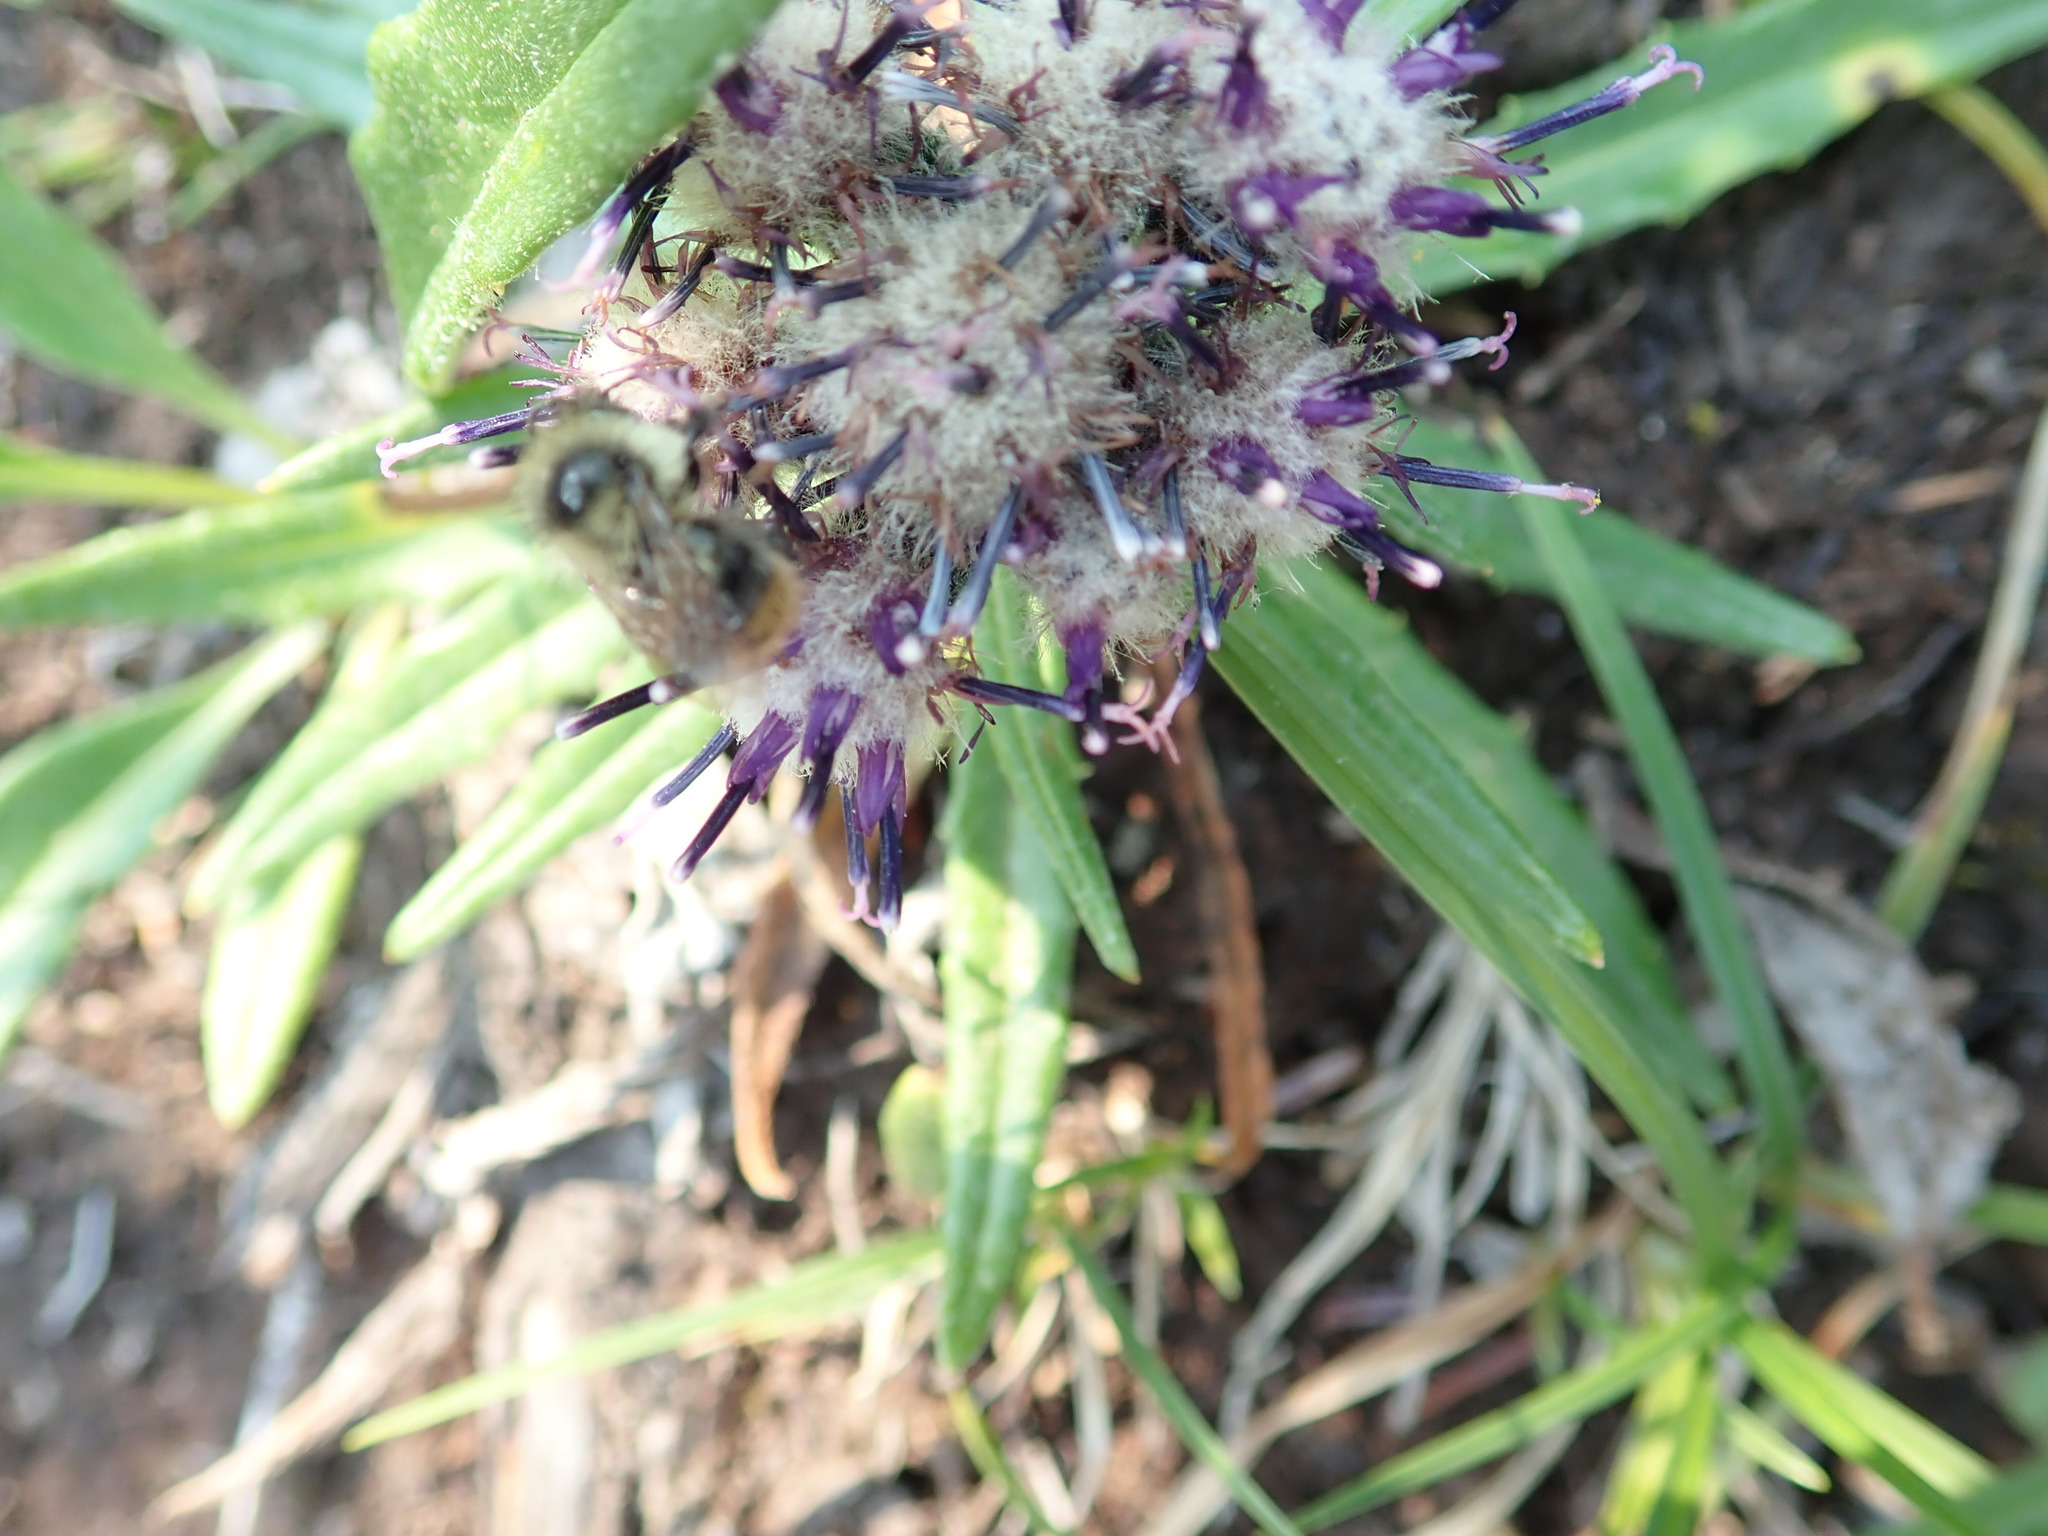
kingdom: Plantae
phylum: Tracheophyta
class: Magnoliopsida
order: Asterales
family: Asteraceae
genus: Saussurea
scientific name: Saussurea angustifolia
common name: Common saussurea
